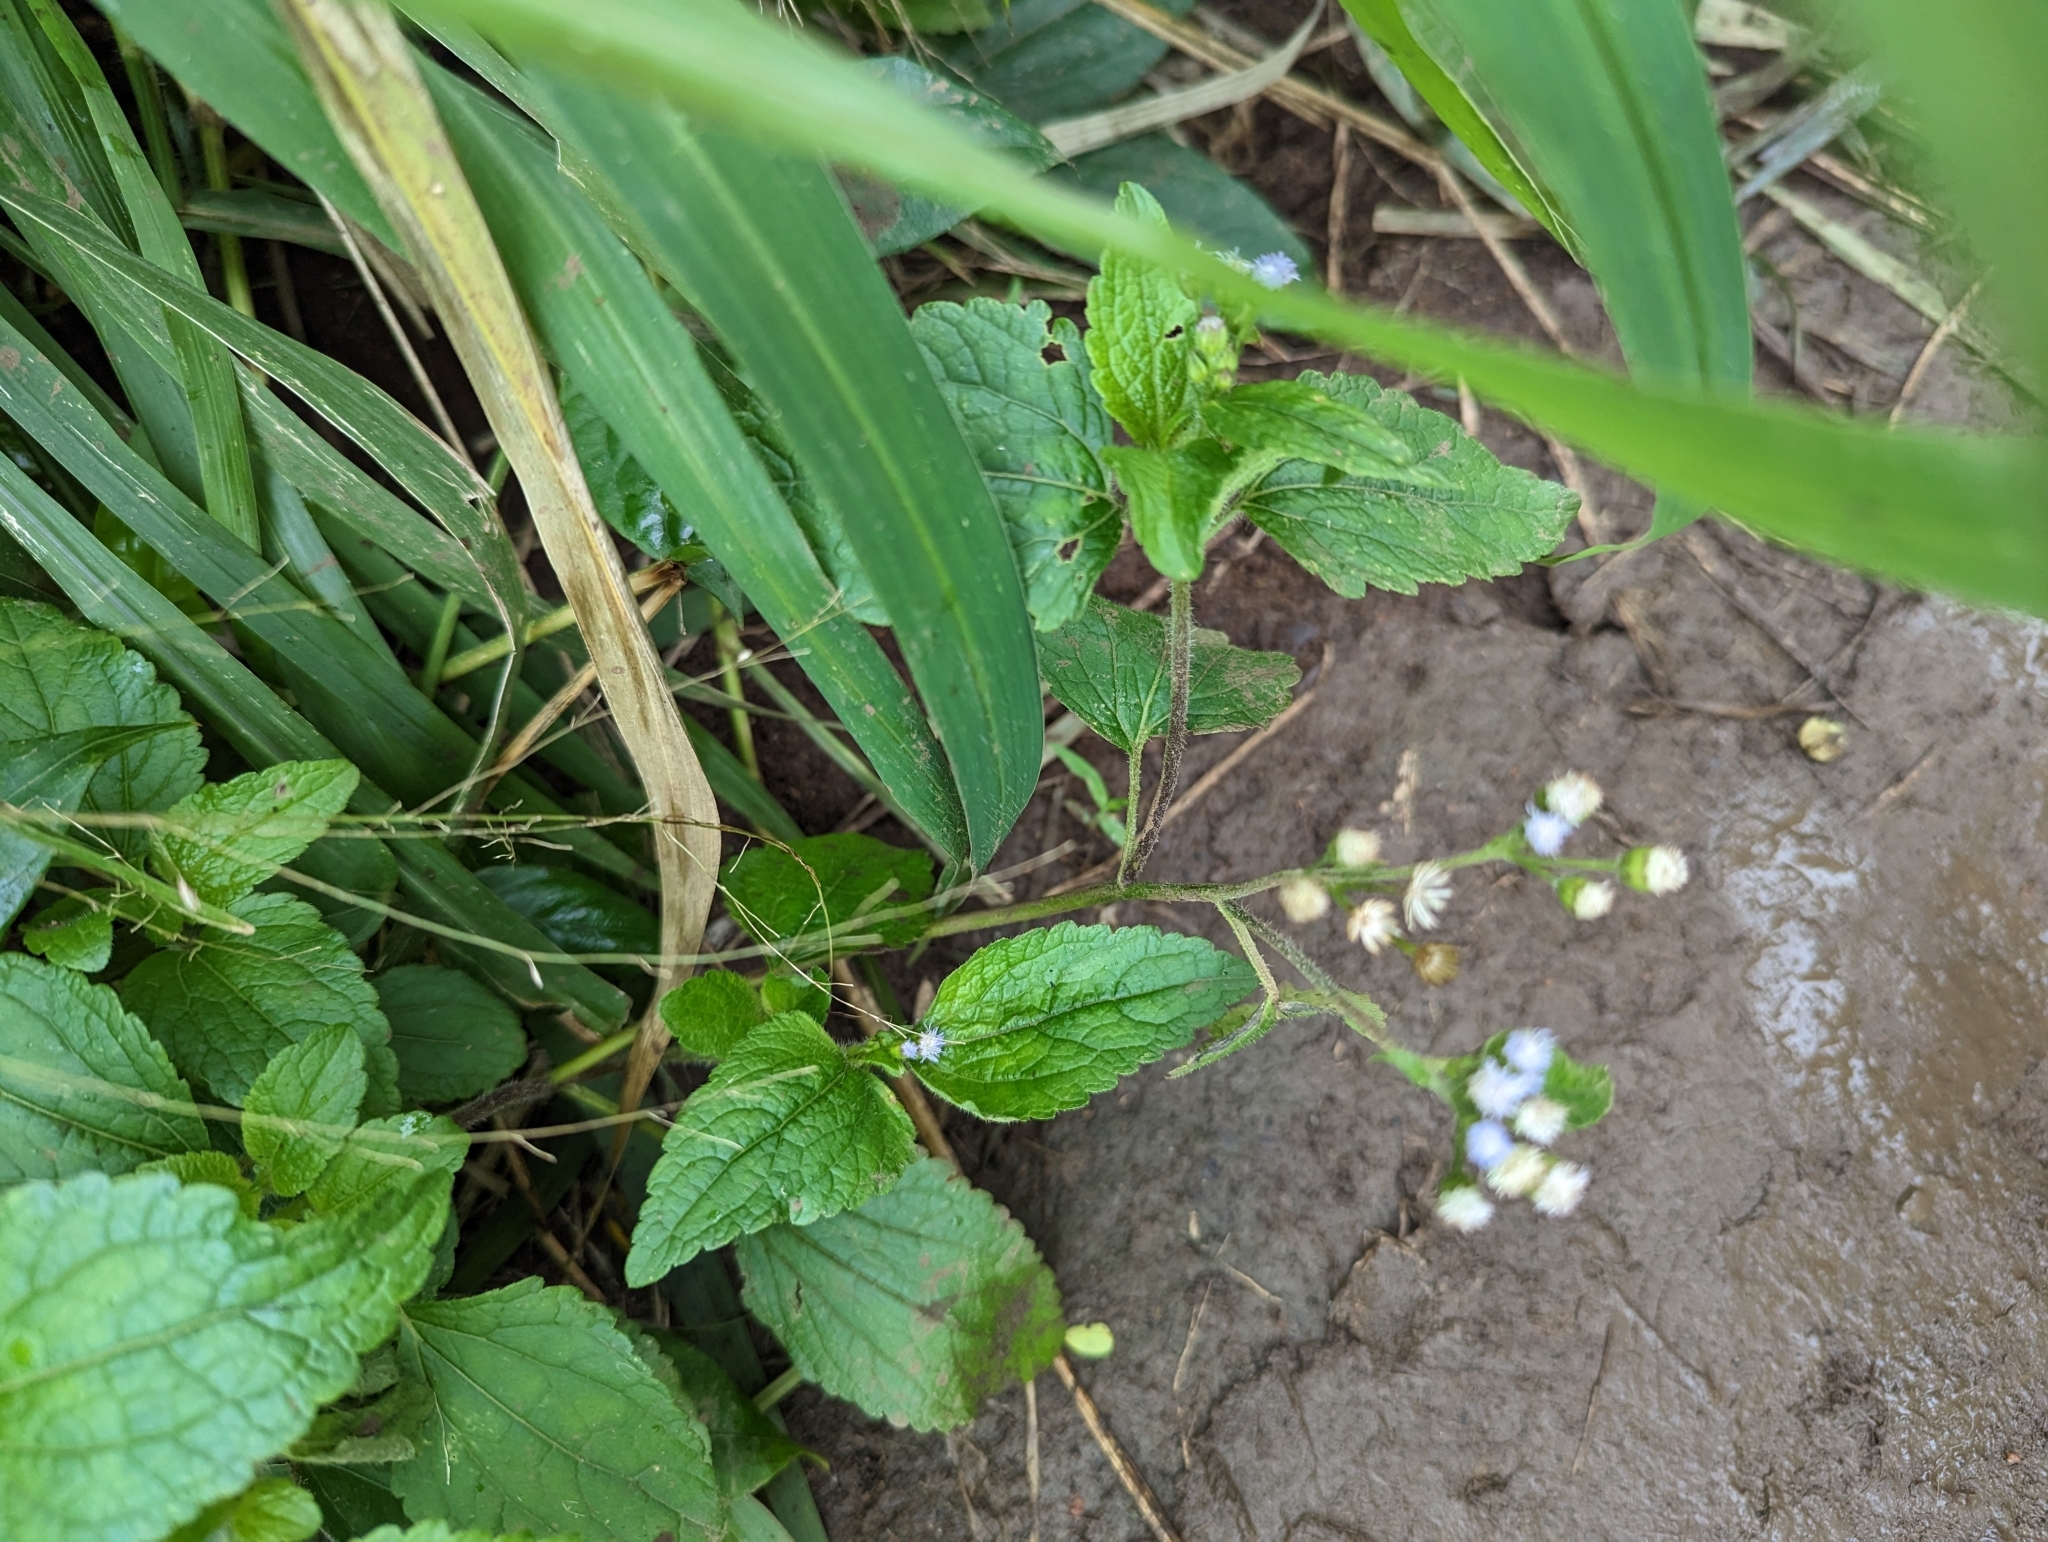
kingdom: Plantae
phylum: Tracheophyta
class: Magnoliopsida
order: Asterales
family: Asteraceae
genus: Ageratum
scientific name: Ageratum conyzoides
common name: Tropical whiteweed
